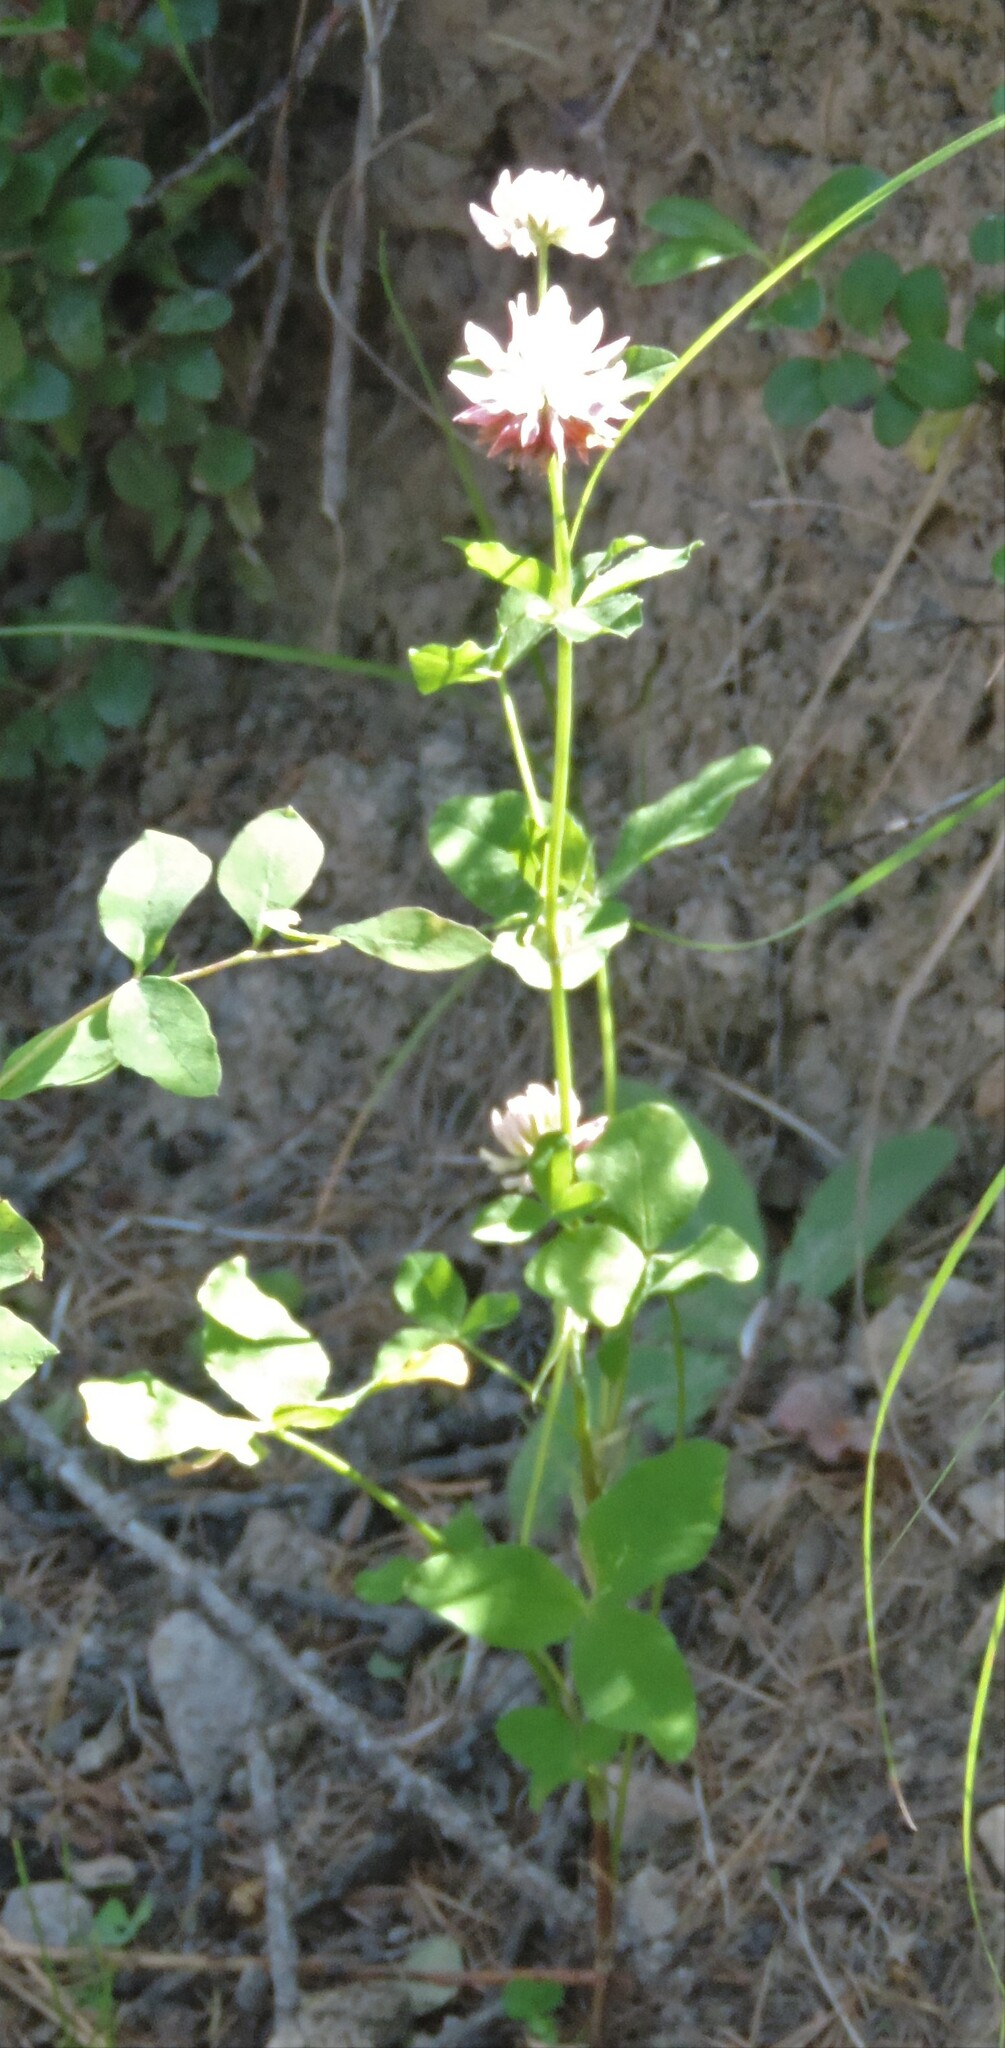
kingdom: Plantae
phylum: Tracheophyta
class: Magnoliopsida
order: Fabales
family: Fabaceae
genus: Trifolium
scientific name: Trifolium hybridum
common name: Alsike clover
